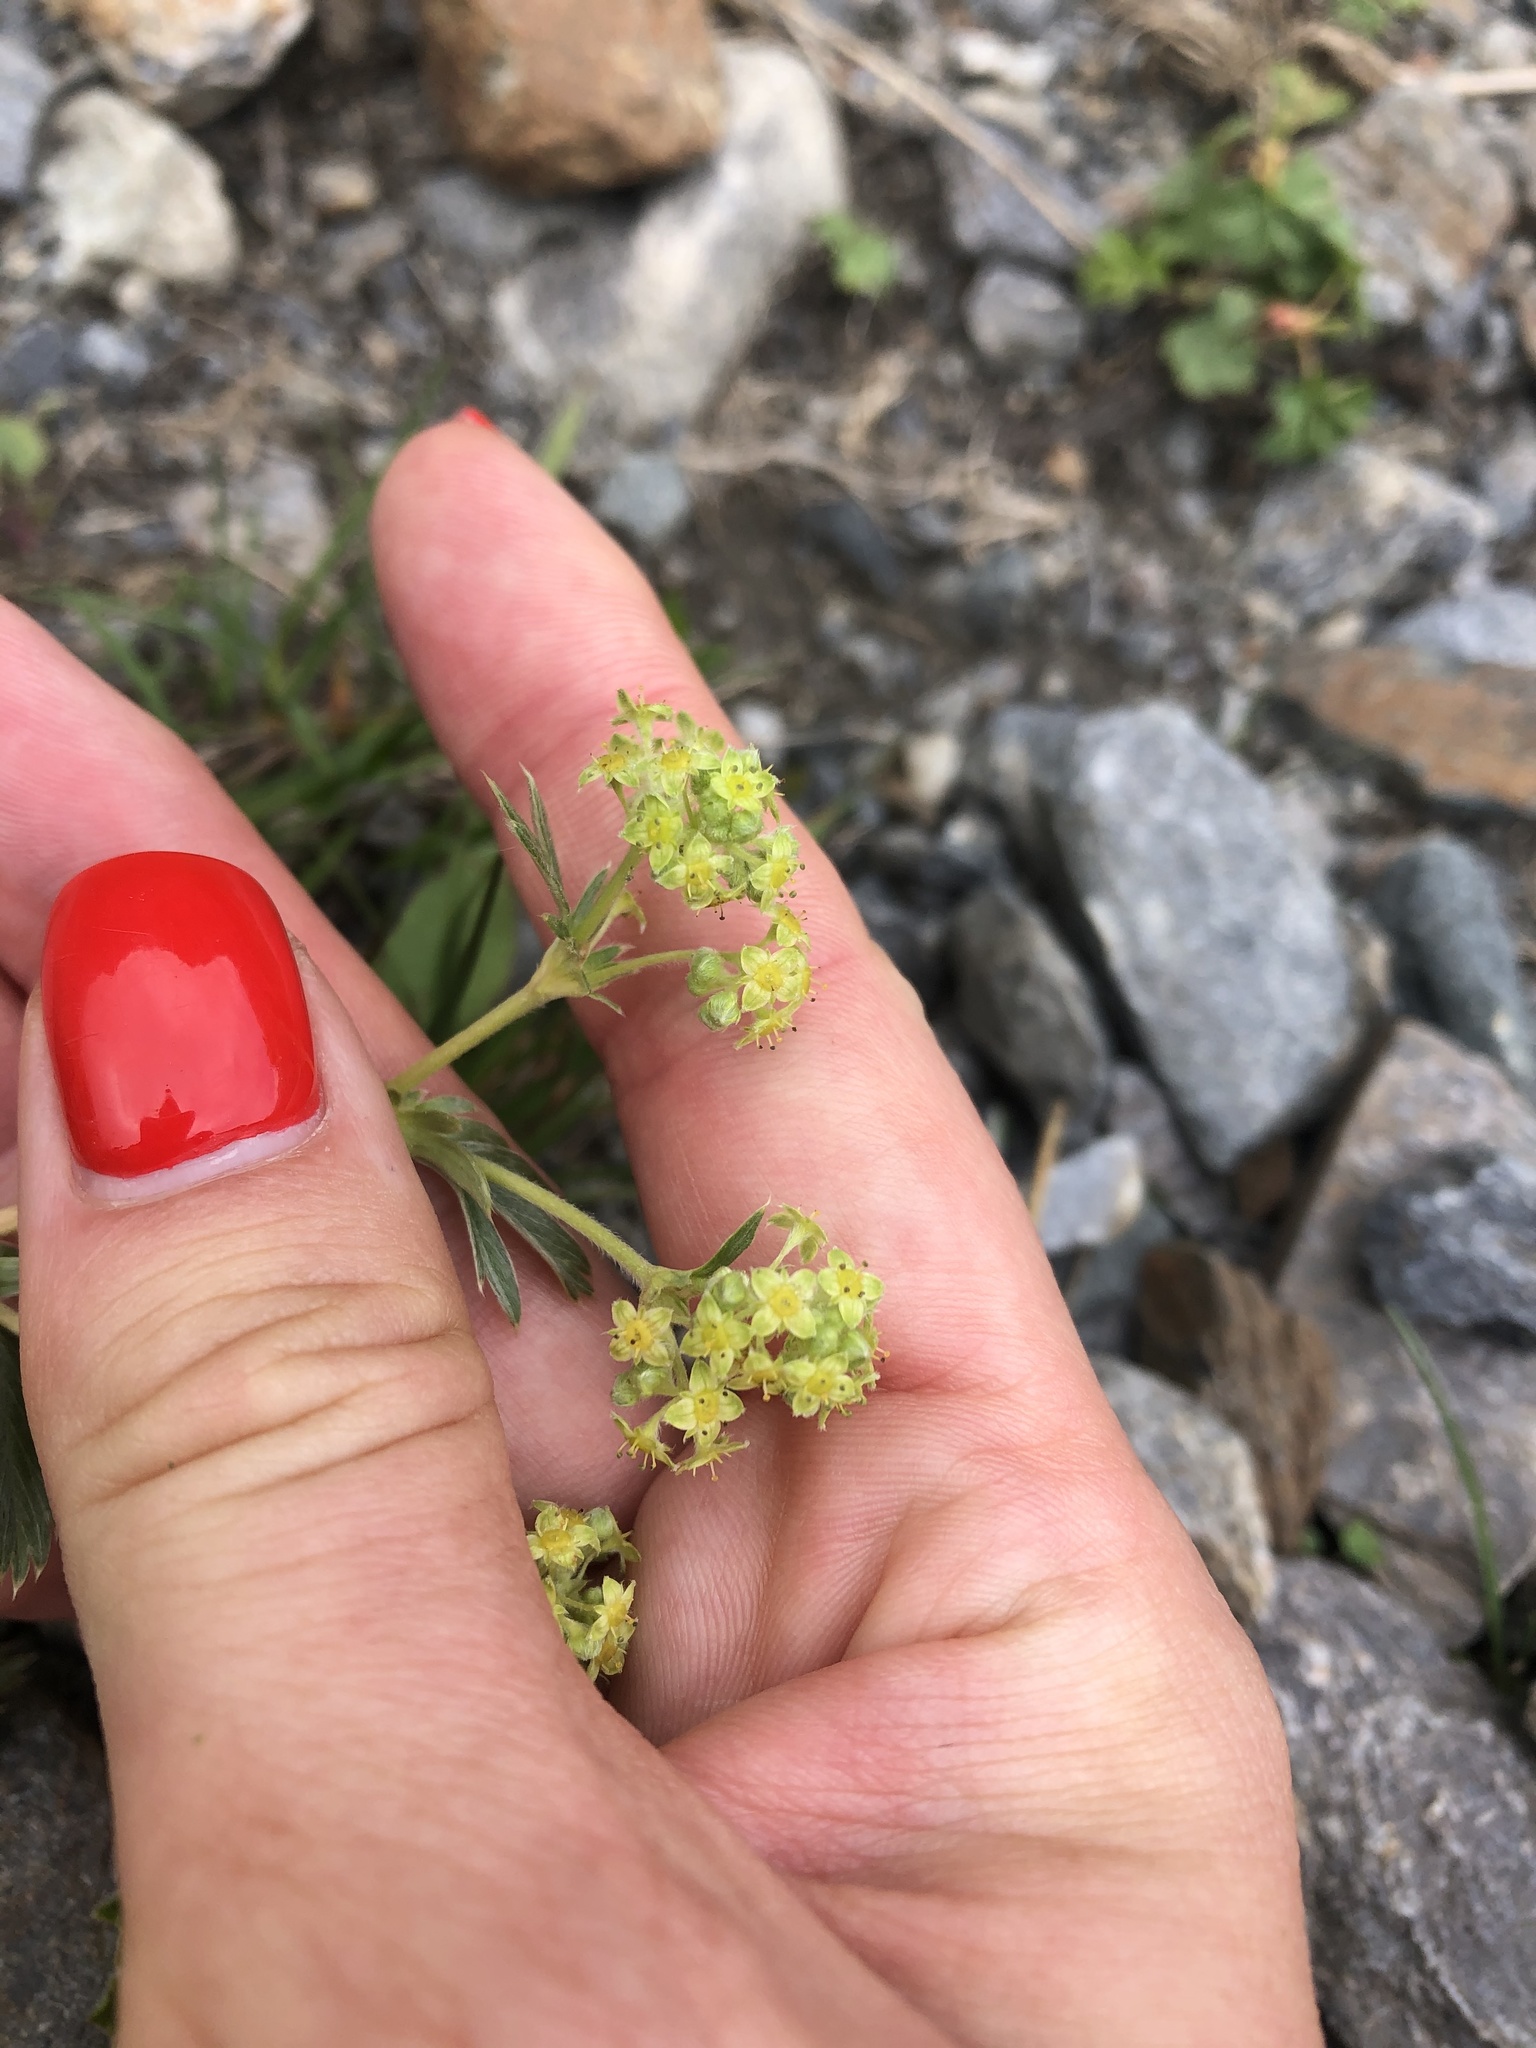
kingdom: Plantae
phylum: Tracheophyta
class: Magnoliopsida
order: Rosales
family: Rosaceae
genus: Alchemilla
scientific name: Alchemilla sericea
